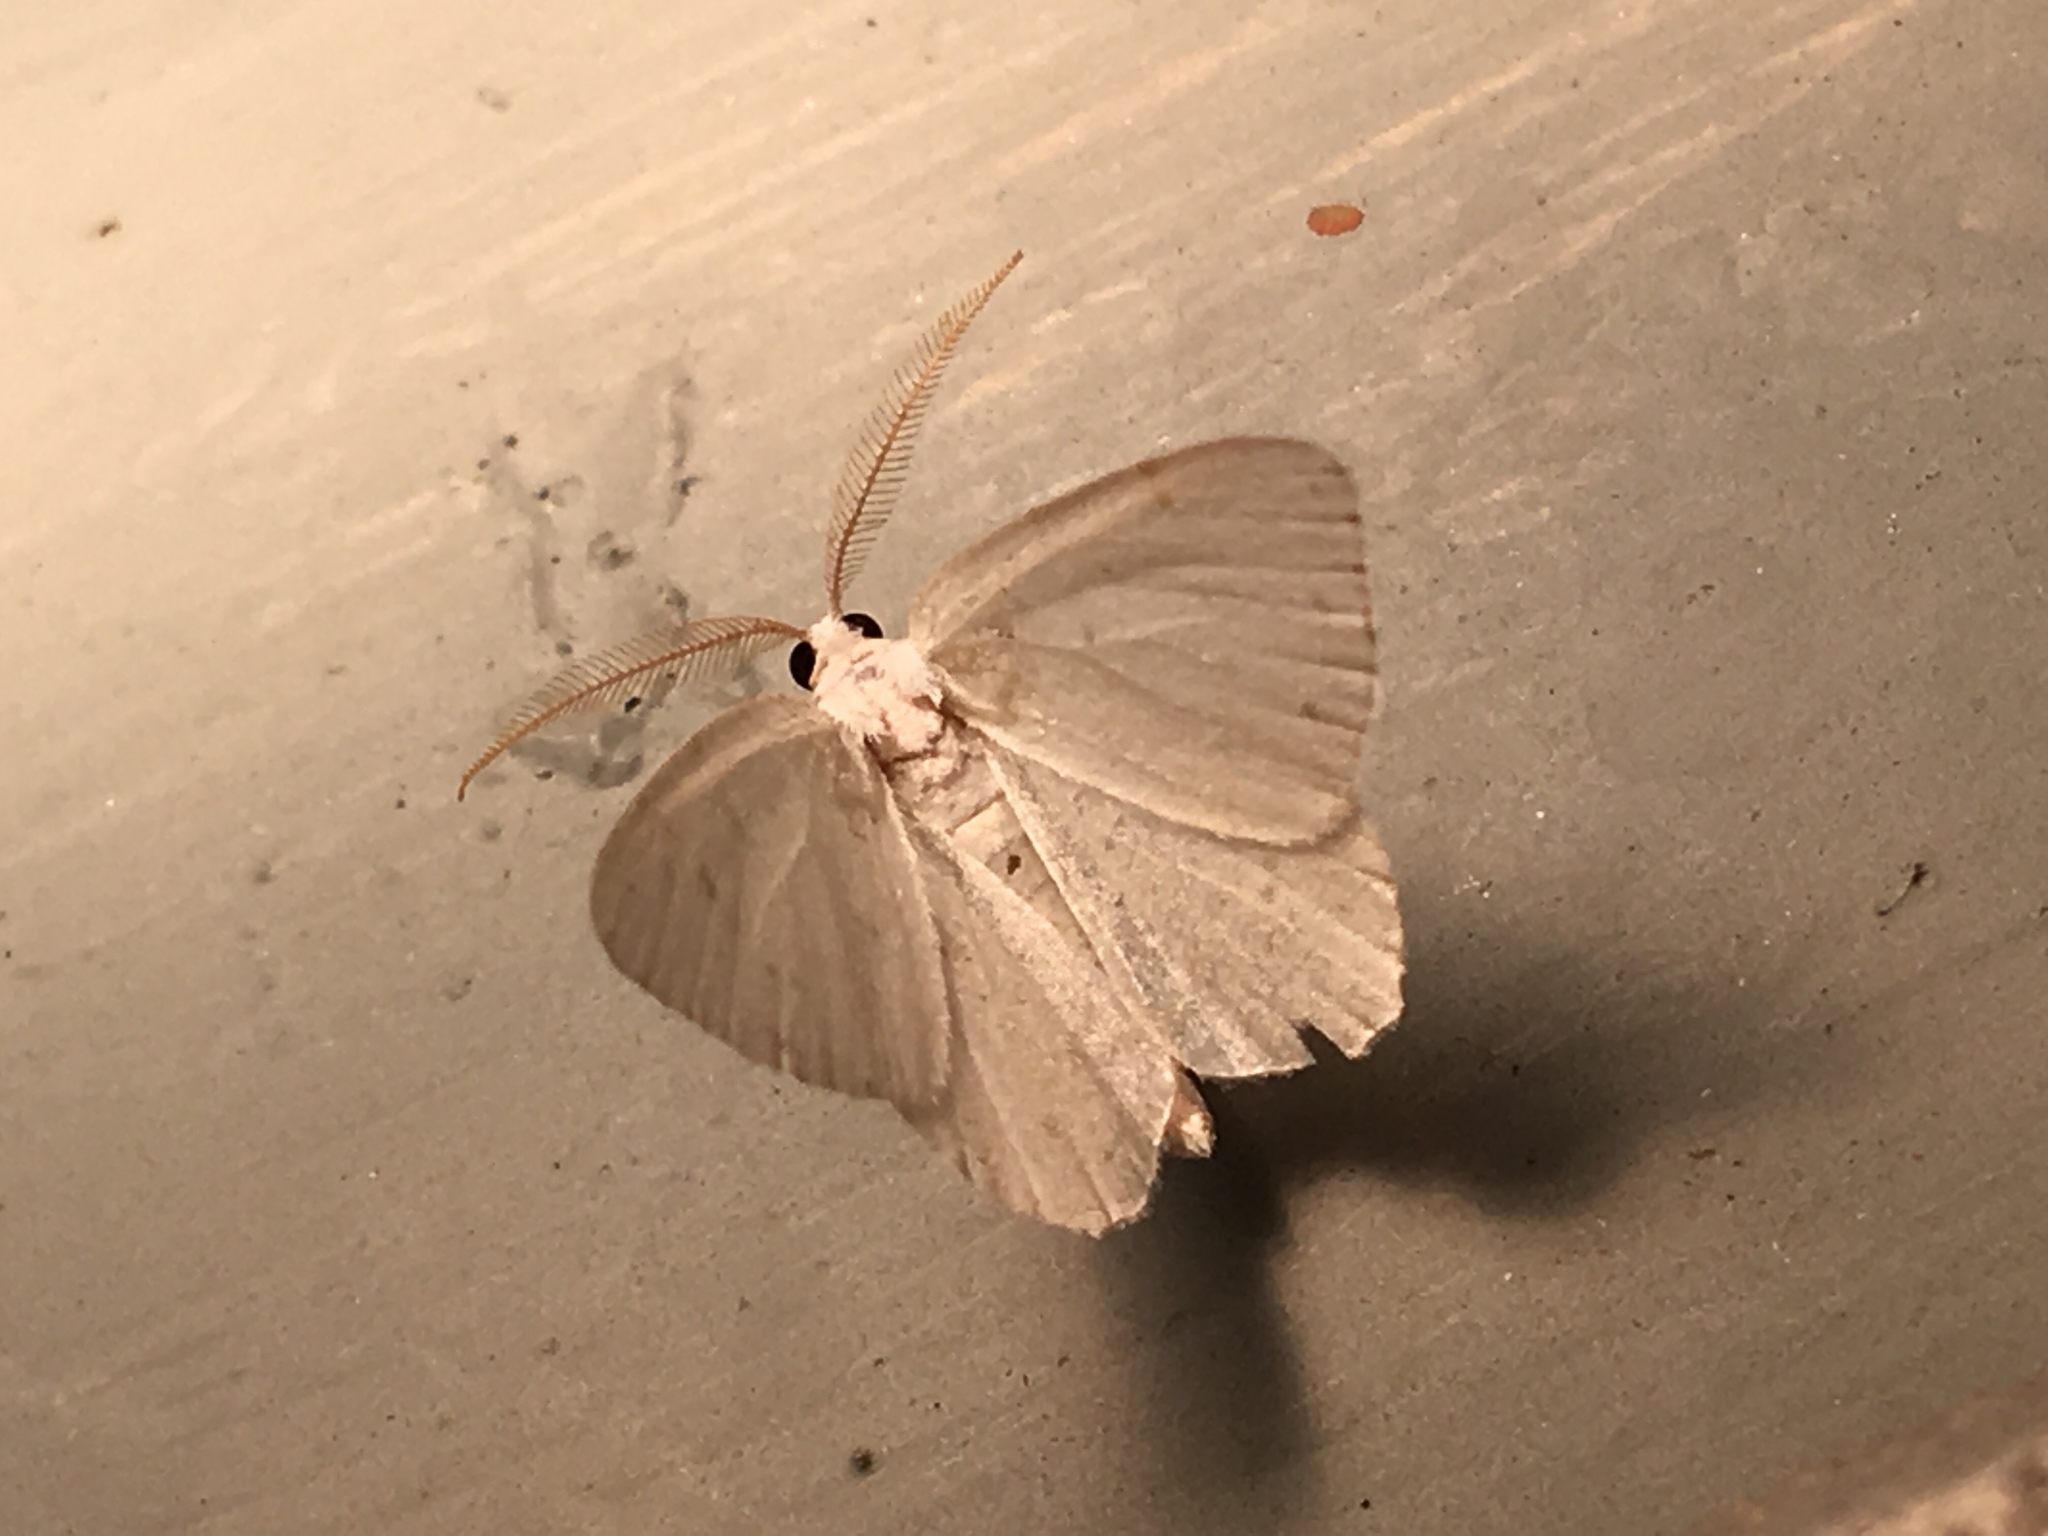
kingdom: Animalia
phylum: Arthropoda
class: Insecta
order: Lepidoptera
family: Geometridae
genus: Macaria
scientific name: Macaria pustularia
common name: Lesser maple spanworm moth
